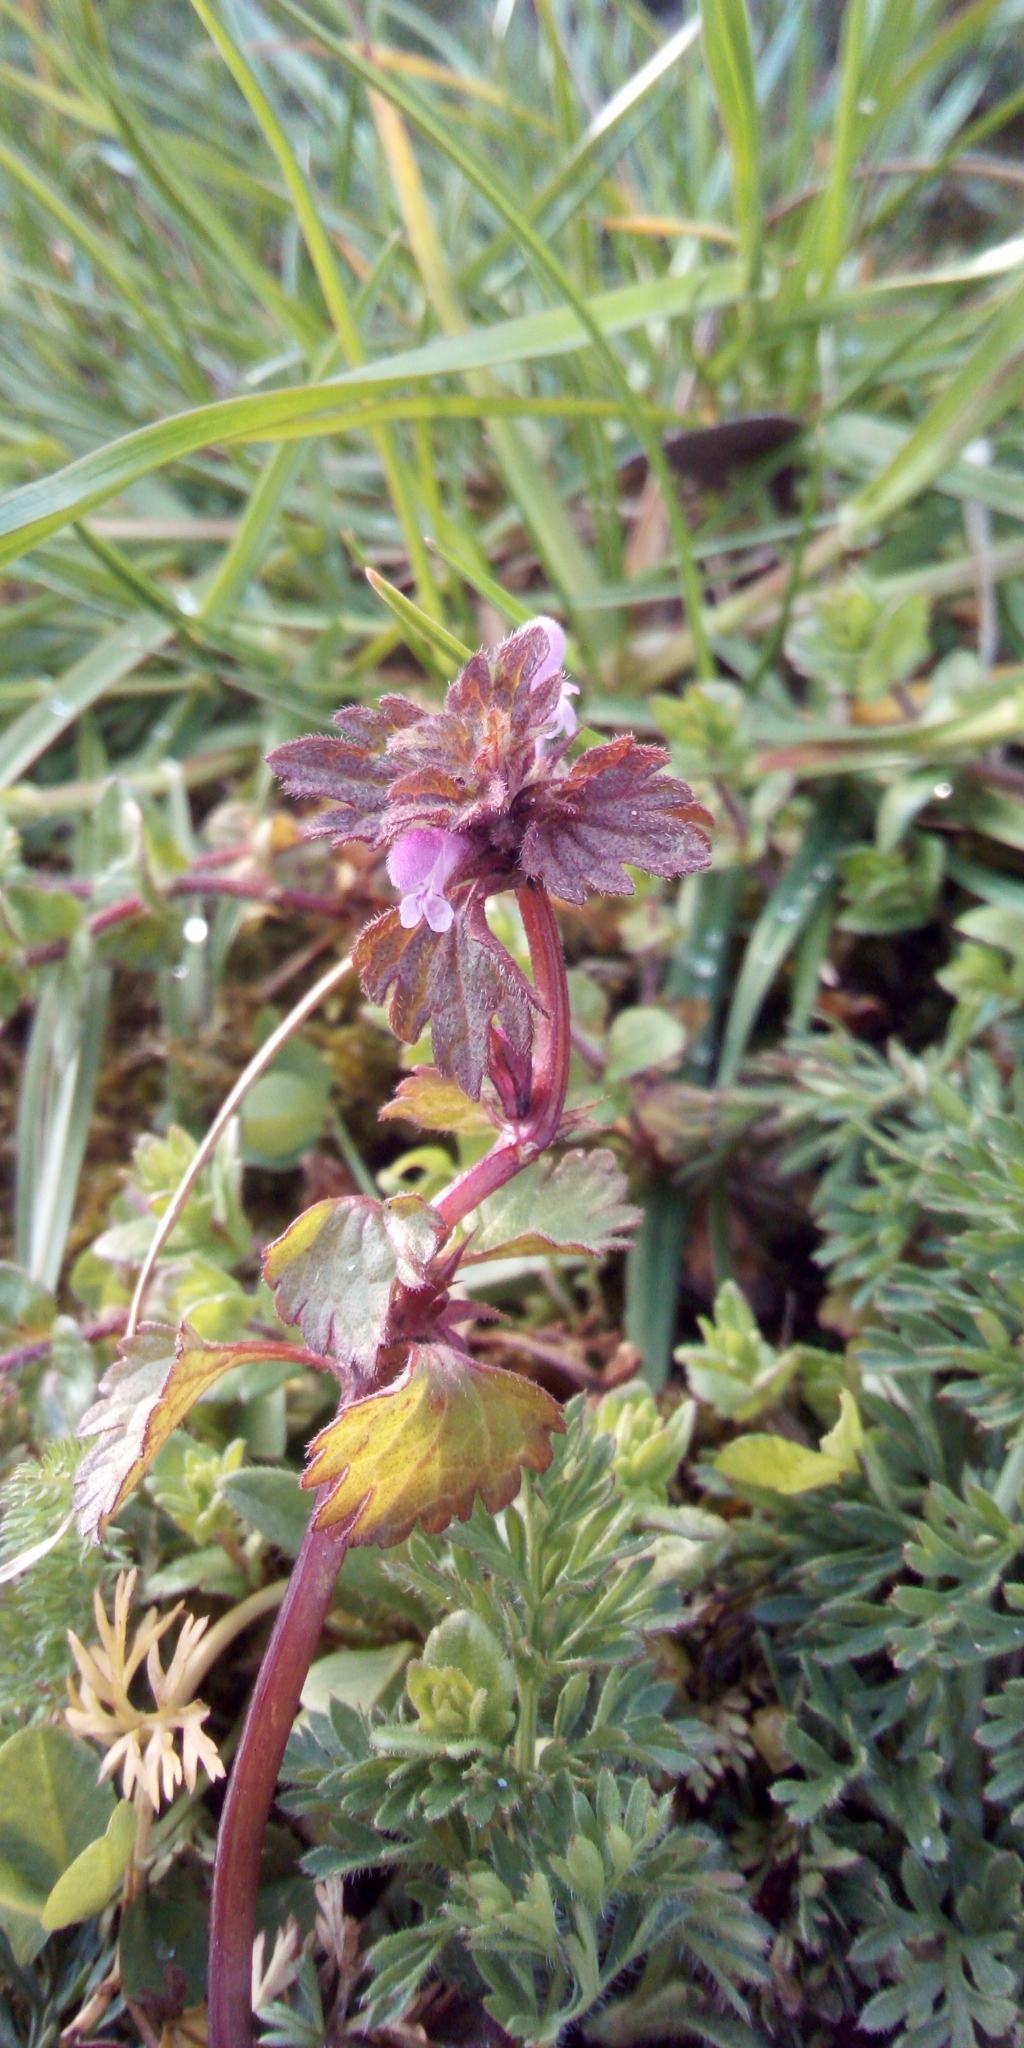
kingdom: Plantae
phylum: Tracheophyta
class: Magnoliopsida
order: Lamiales
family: Lamiaceae
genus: Lamium
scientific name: Lamium hybridum
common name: Cut-leaved dead-nettle
